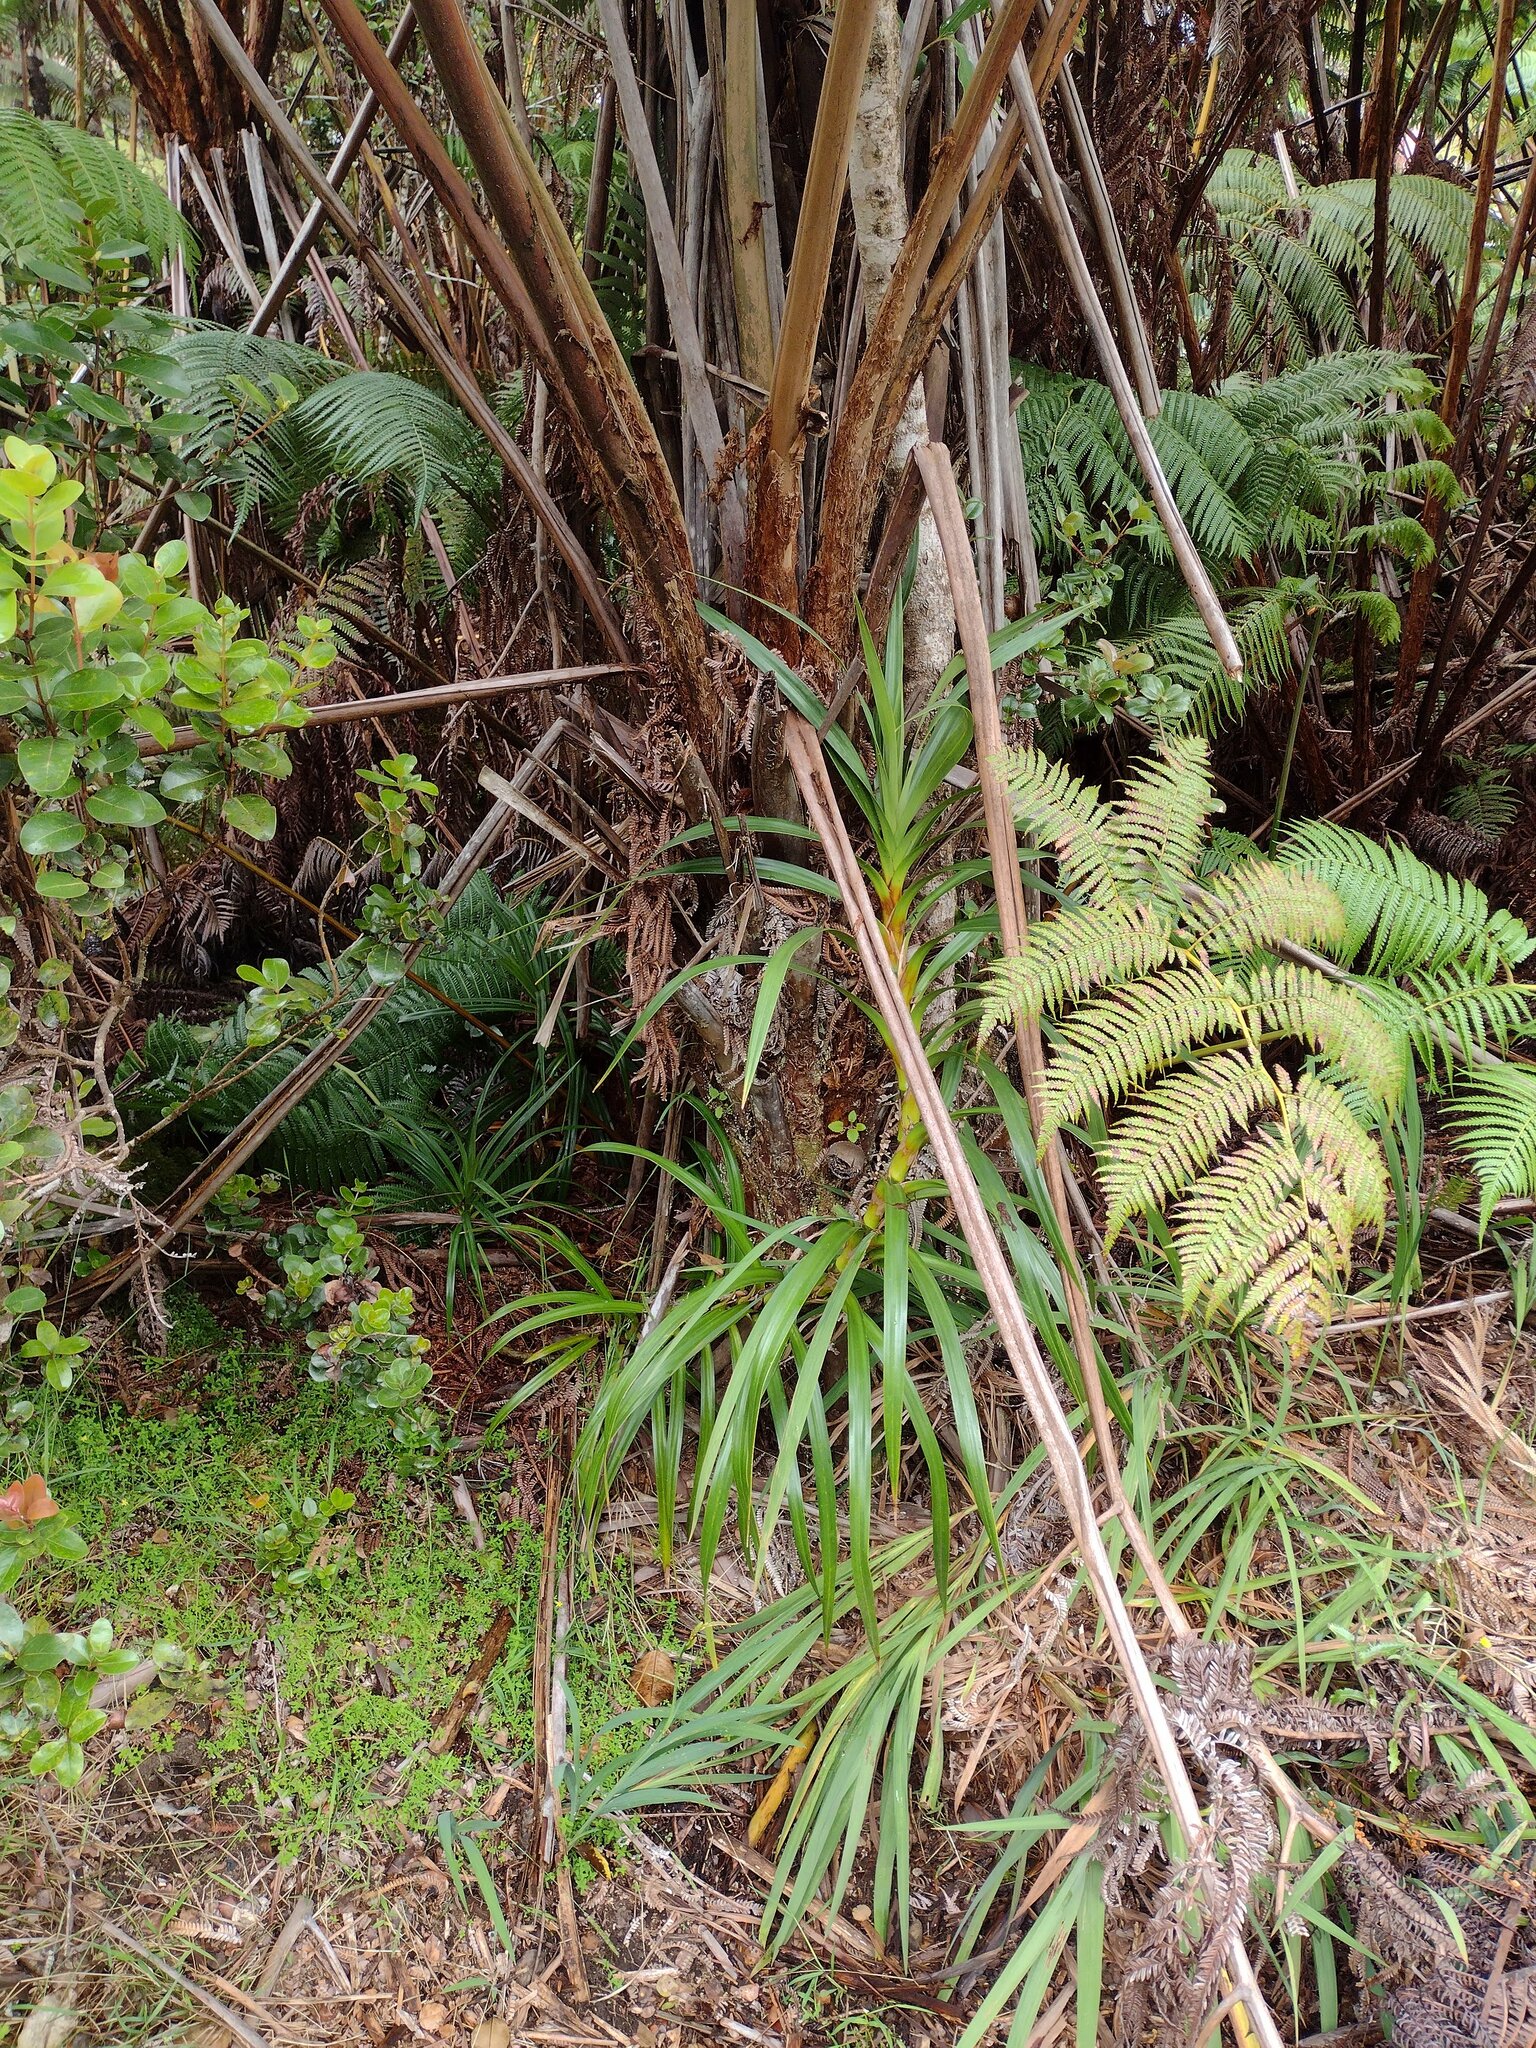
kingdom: Plantae
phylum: Tracheophyta
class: Liliopsida
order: Pandanales
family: Pandanaceae
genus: Freycinetia
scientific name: Freycinetia arborea
